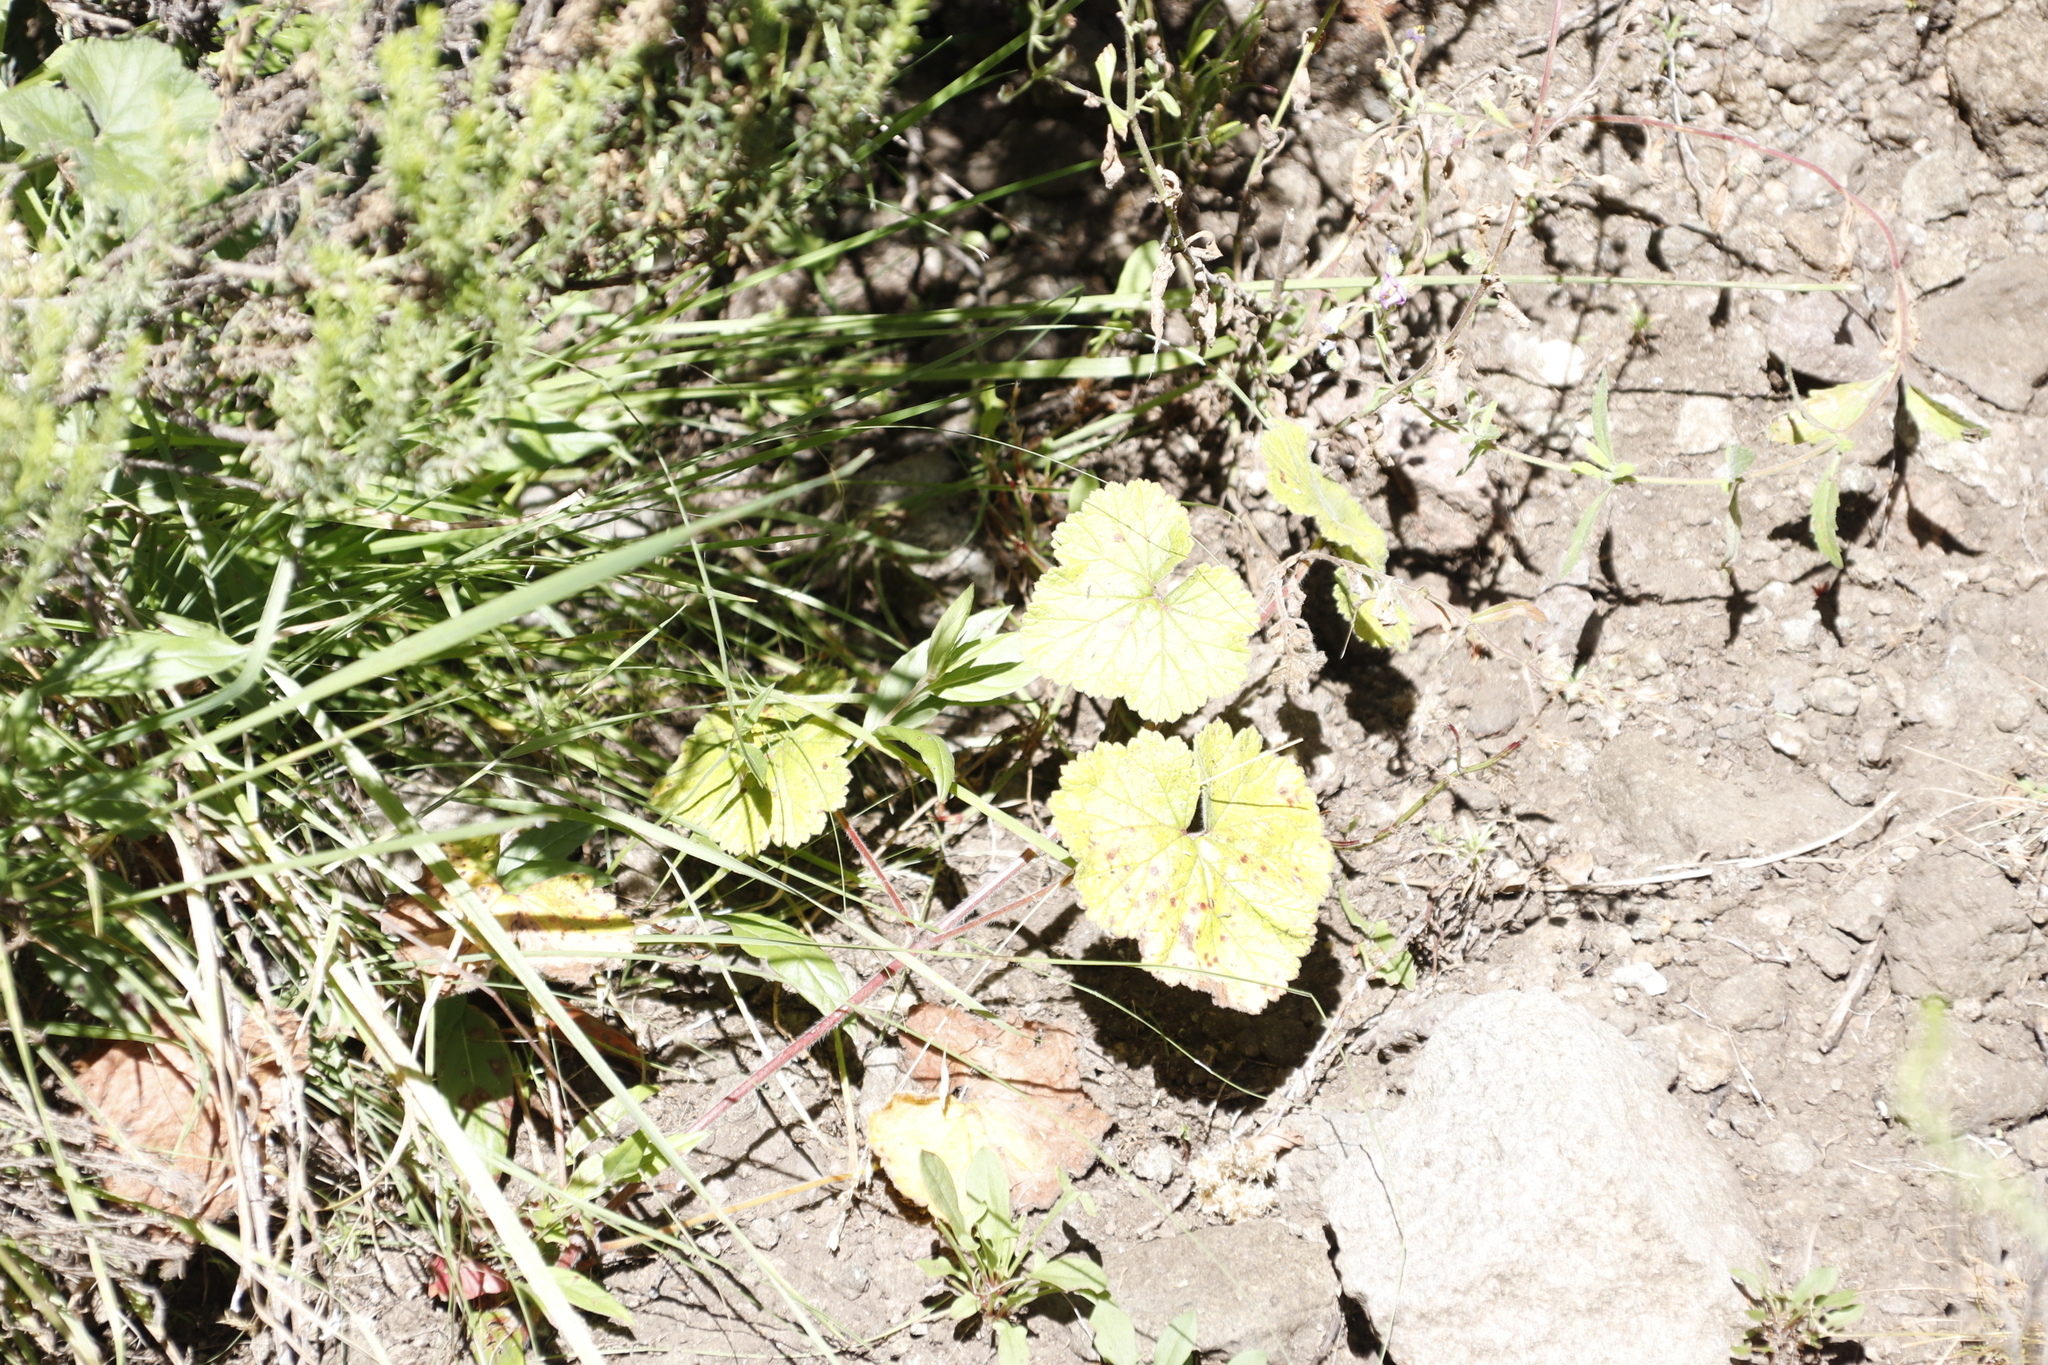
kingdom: Plantae
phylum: Tracheophyta
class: Magnoliopsida
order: Geraniales
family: Geraniaceae
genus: Pelargonium
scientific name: Pelargonium zonale
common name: Horseshoe geranium
